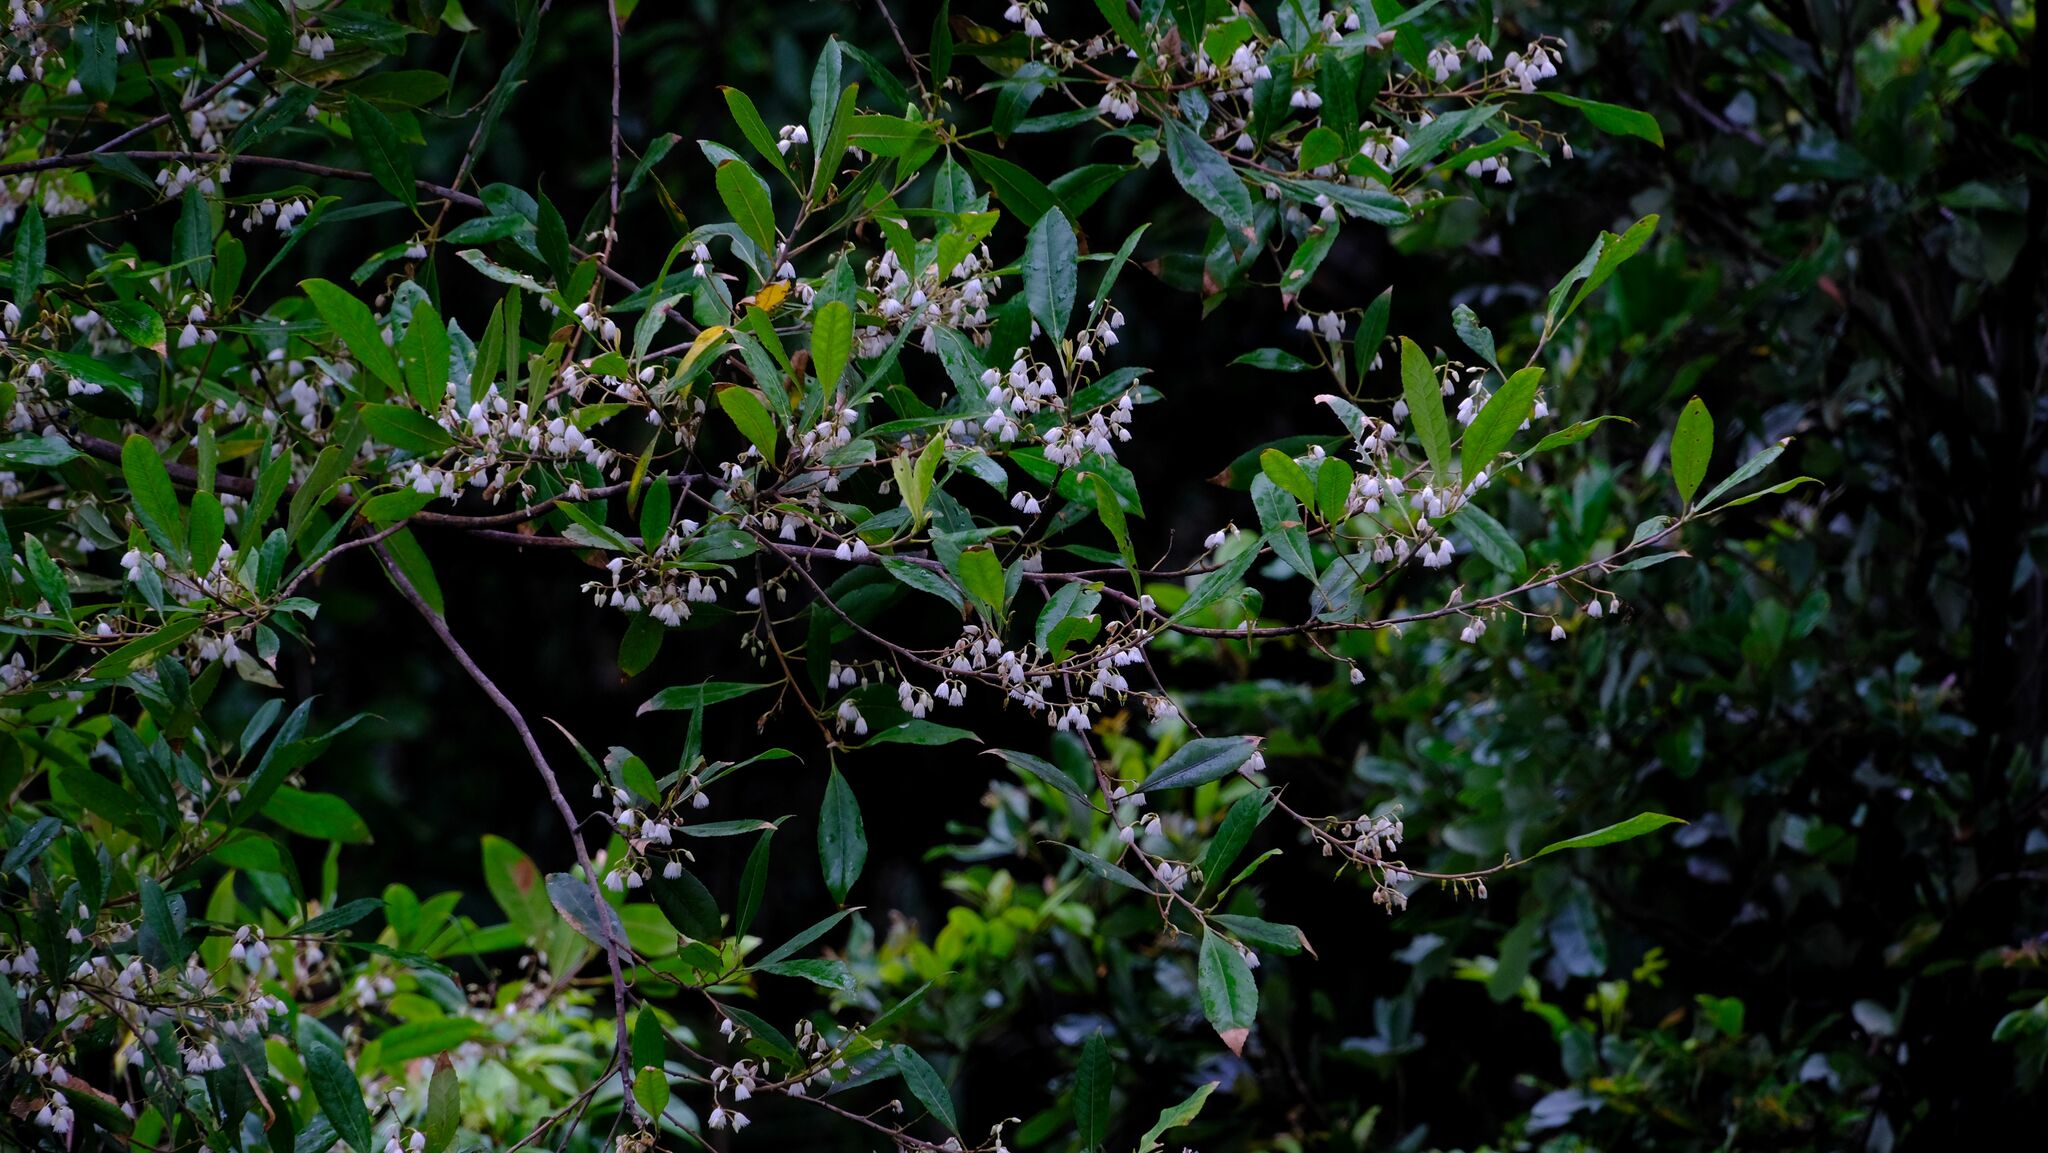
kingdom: Plantae
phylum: Tracheophyta
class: Magnoliopsida
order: Oxalidales
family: Elaeocarpaceae
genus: Elaeocarpus
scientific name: Elaeocarpus reticulatus
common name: Ash quandong
